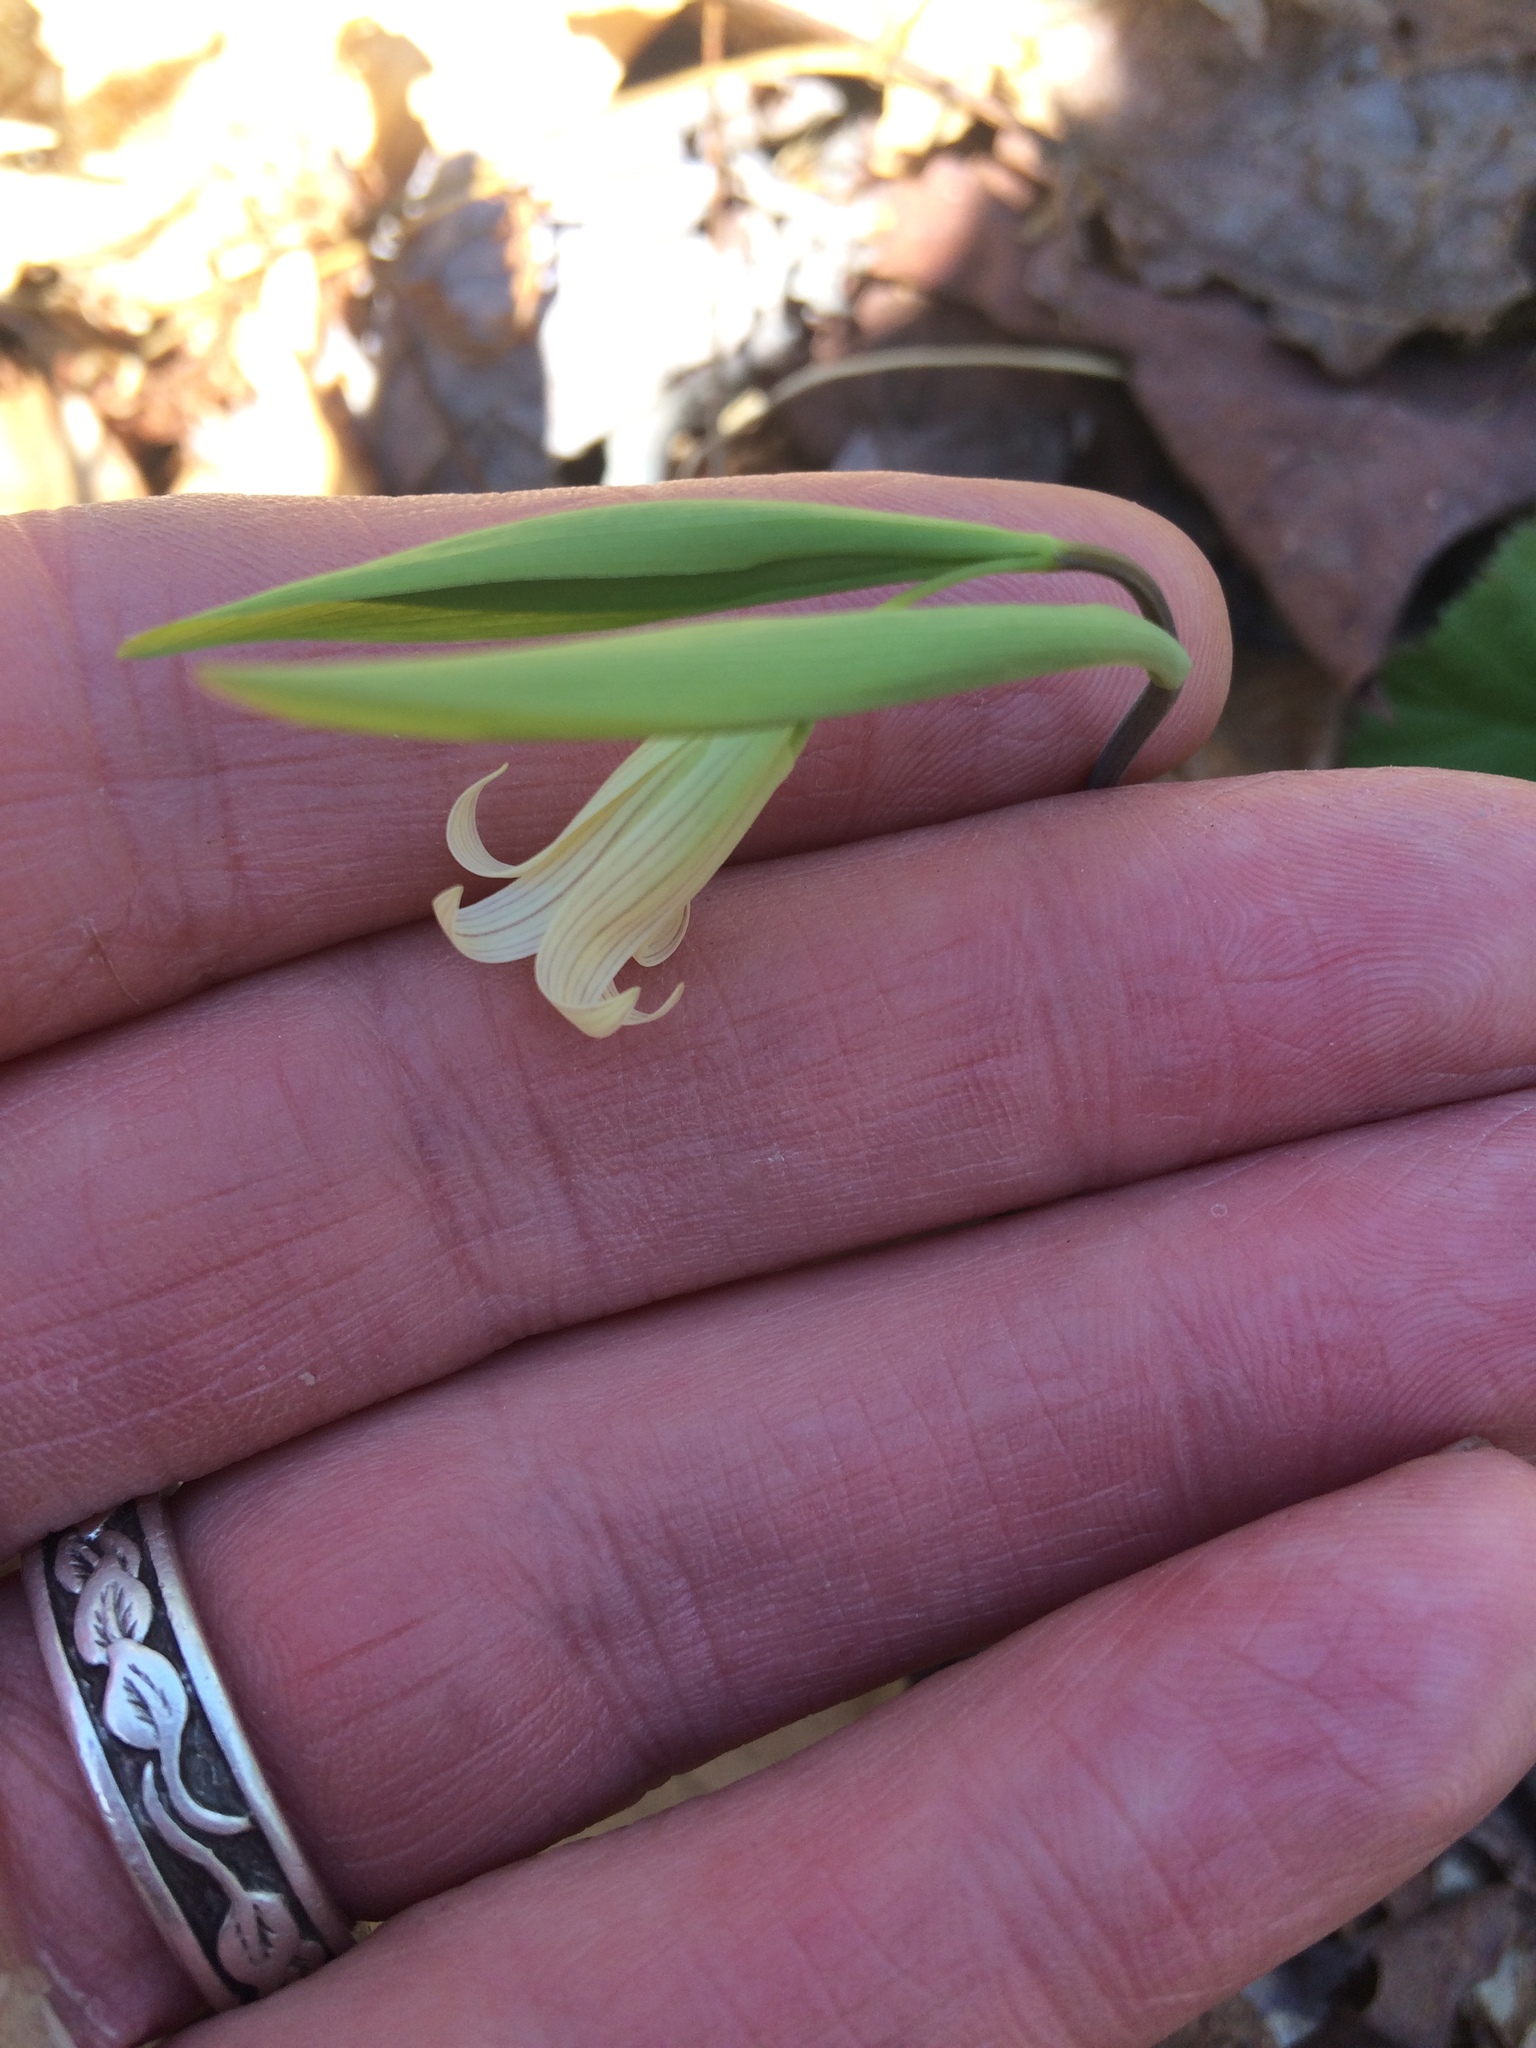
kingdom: Plantae
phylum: Tracheophyta
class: Liliopsida
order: Liliales
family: Colchicaceae
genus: Uvularia
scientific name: Uvularia sessilifolia
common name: Straw-lily
